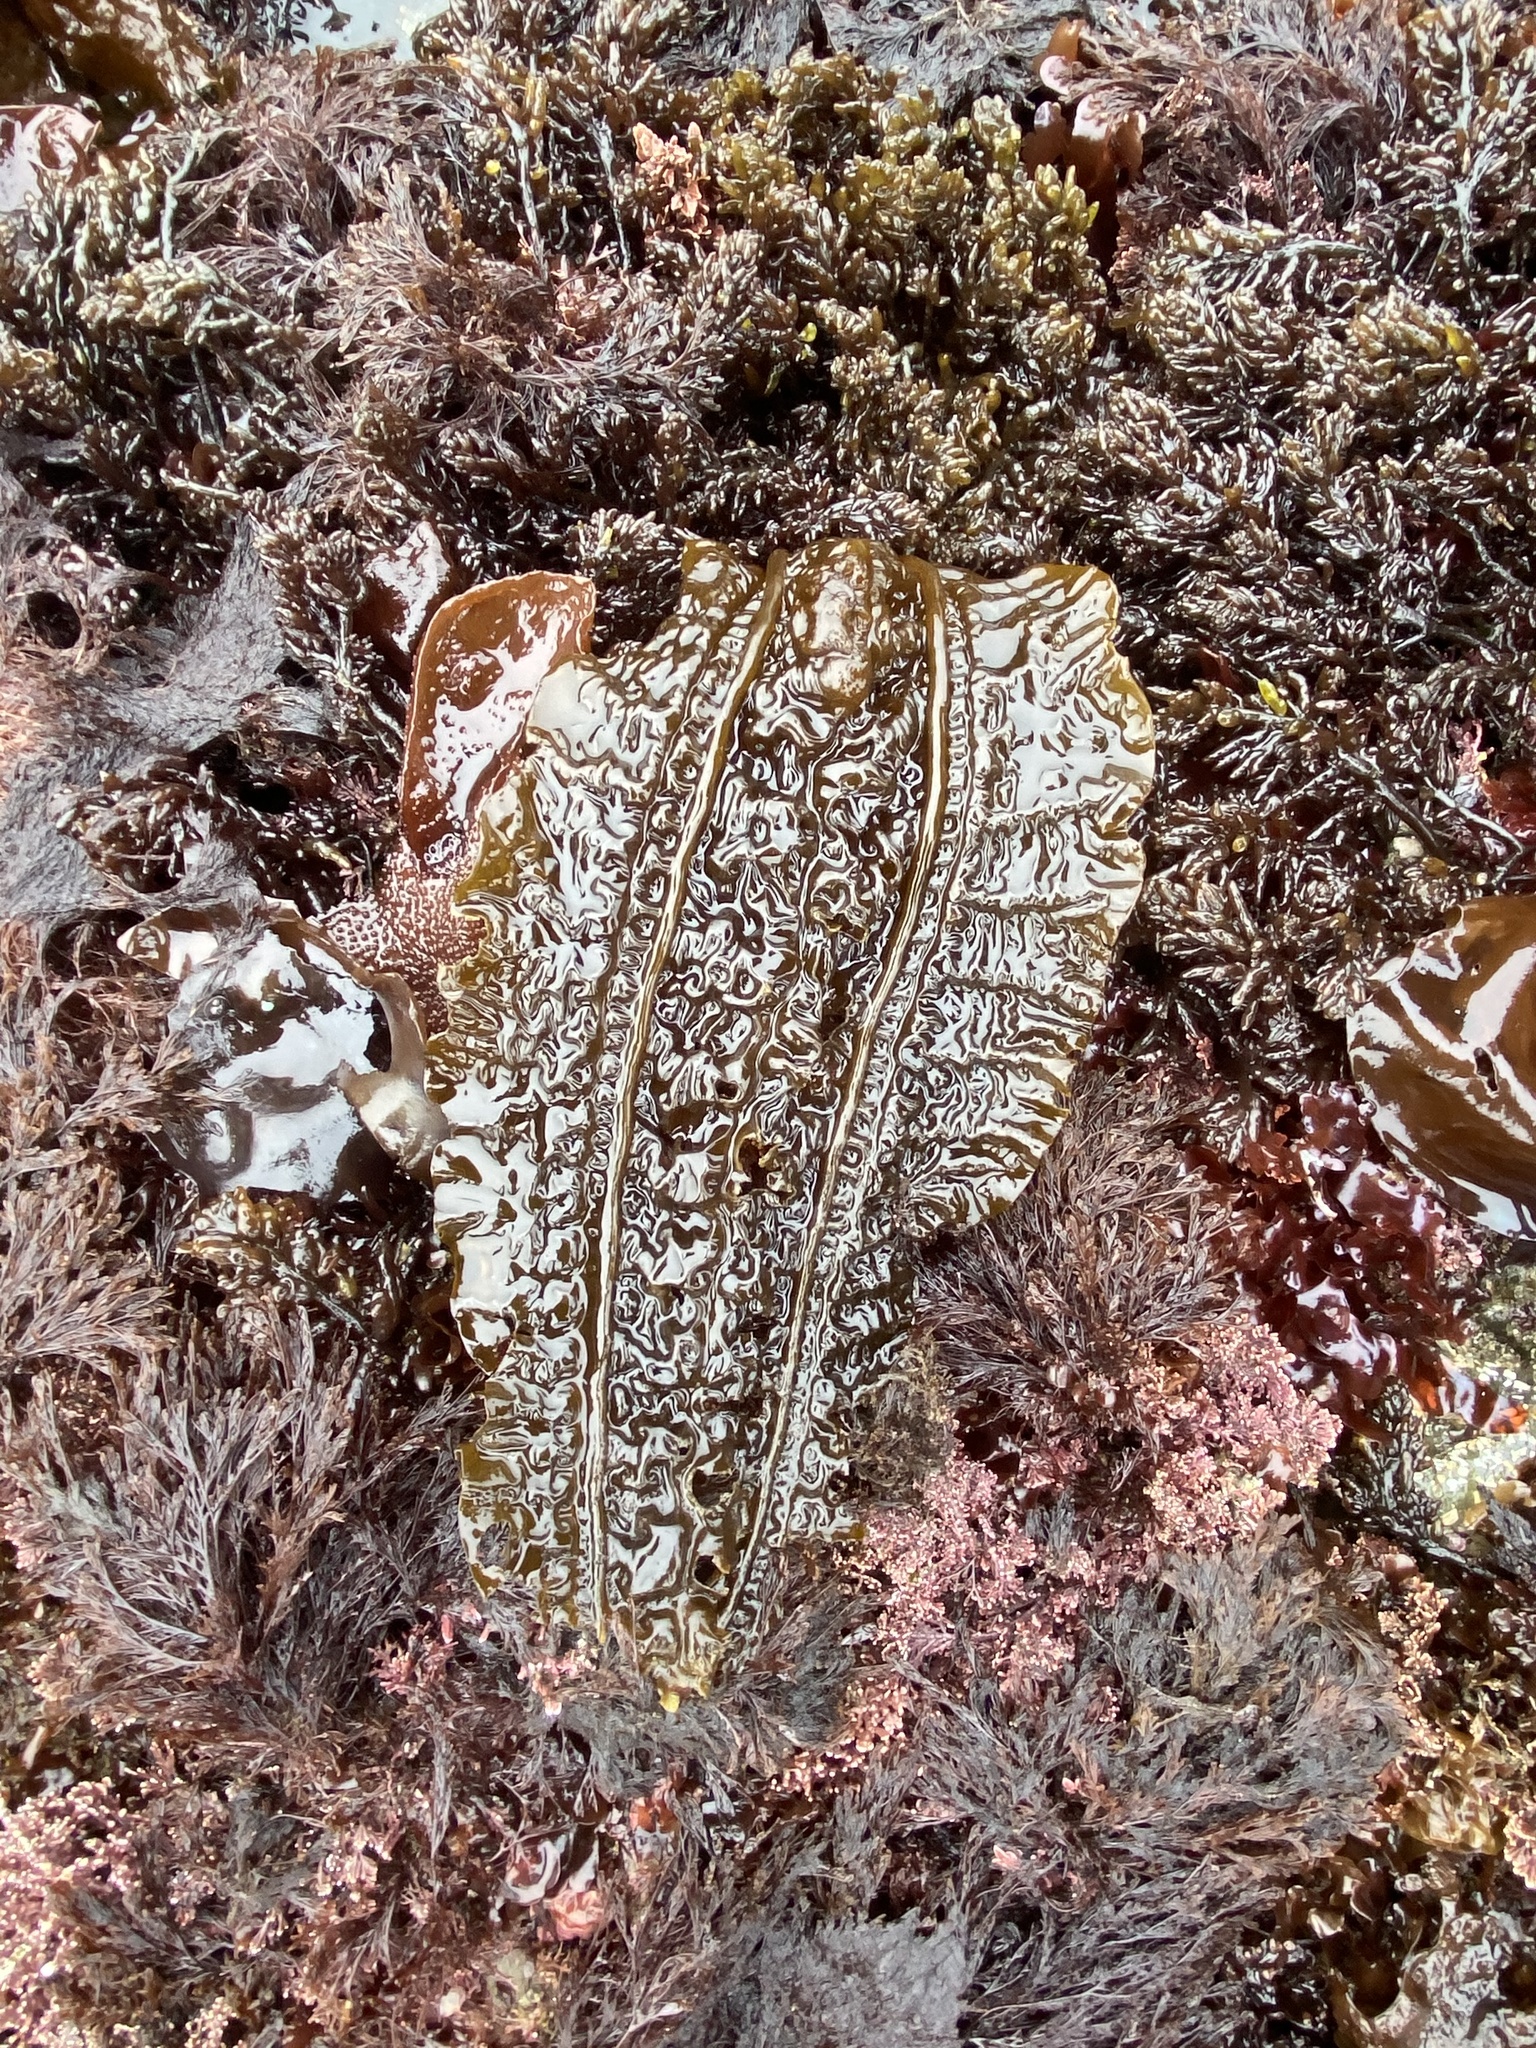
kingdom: Chromista
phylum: Ochrophyta
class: Phaeophyceae
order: Laminariales
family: Costariaceae
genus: Costaria
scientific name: Costaria costata
